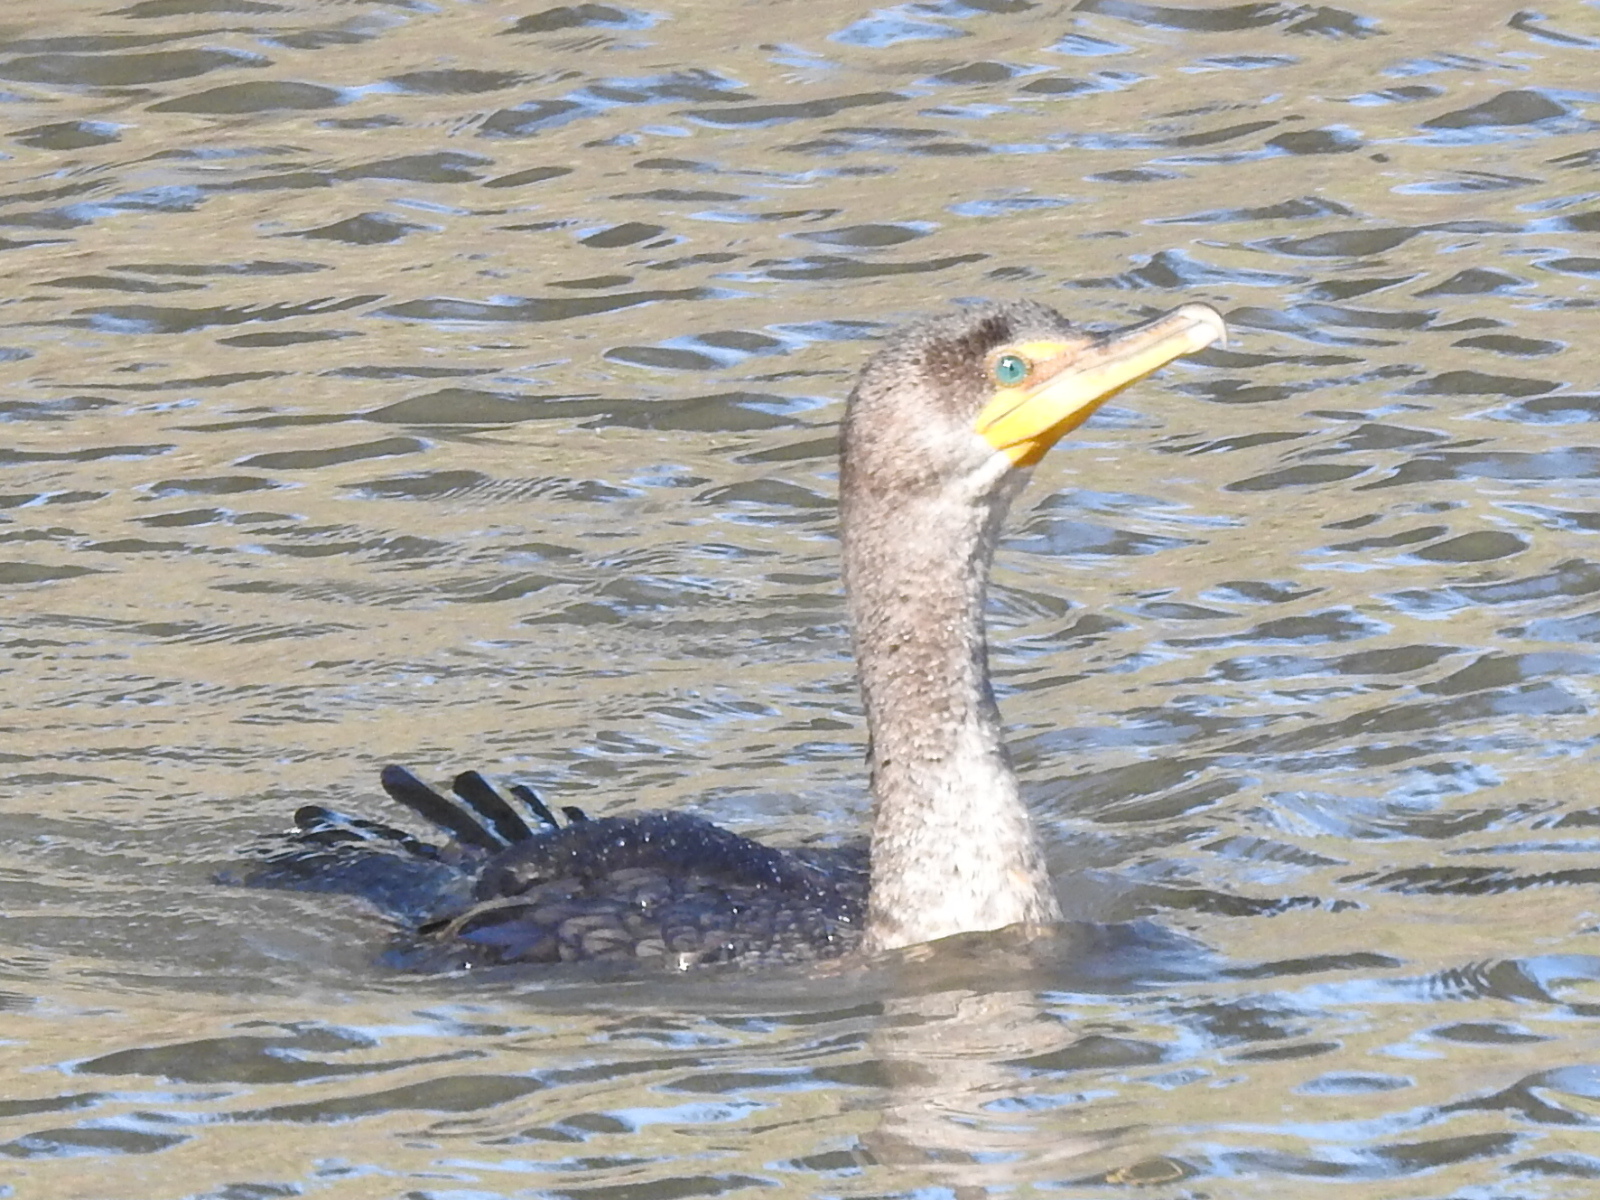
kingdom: Animalia
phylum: Chordata
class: Aves
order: Suliformes
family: Phalacrocoracidae
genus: Phalacrocorax
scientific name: Phalacrocorax auritus
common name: Double-crested cormorant
